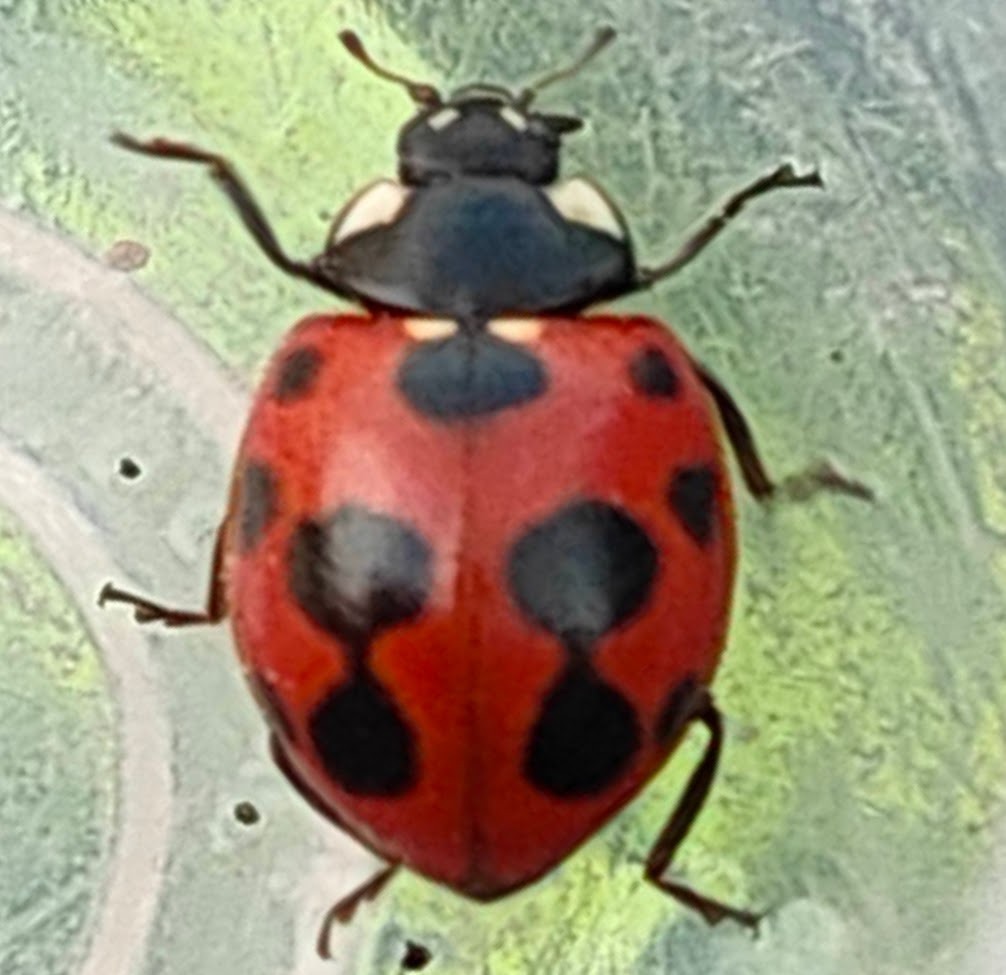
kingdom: Animalia
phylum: Arthropoda
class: Insecta
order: Coleoptera
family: Coccinellidae
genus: Coccinella
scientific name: Coccinella ainu
